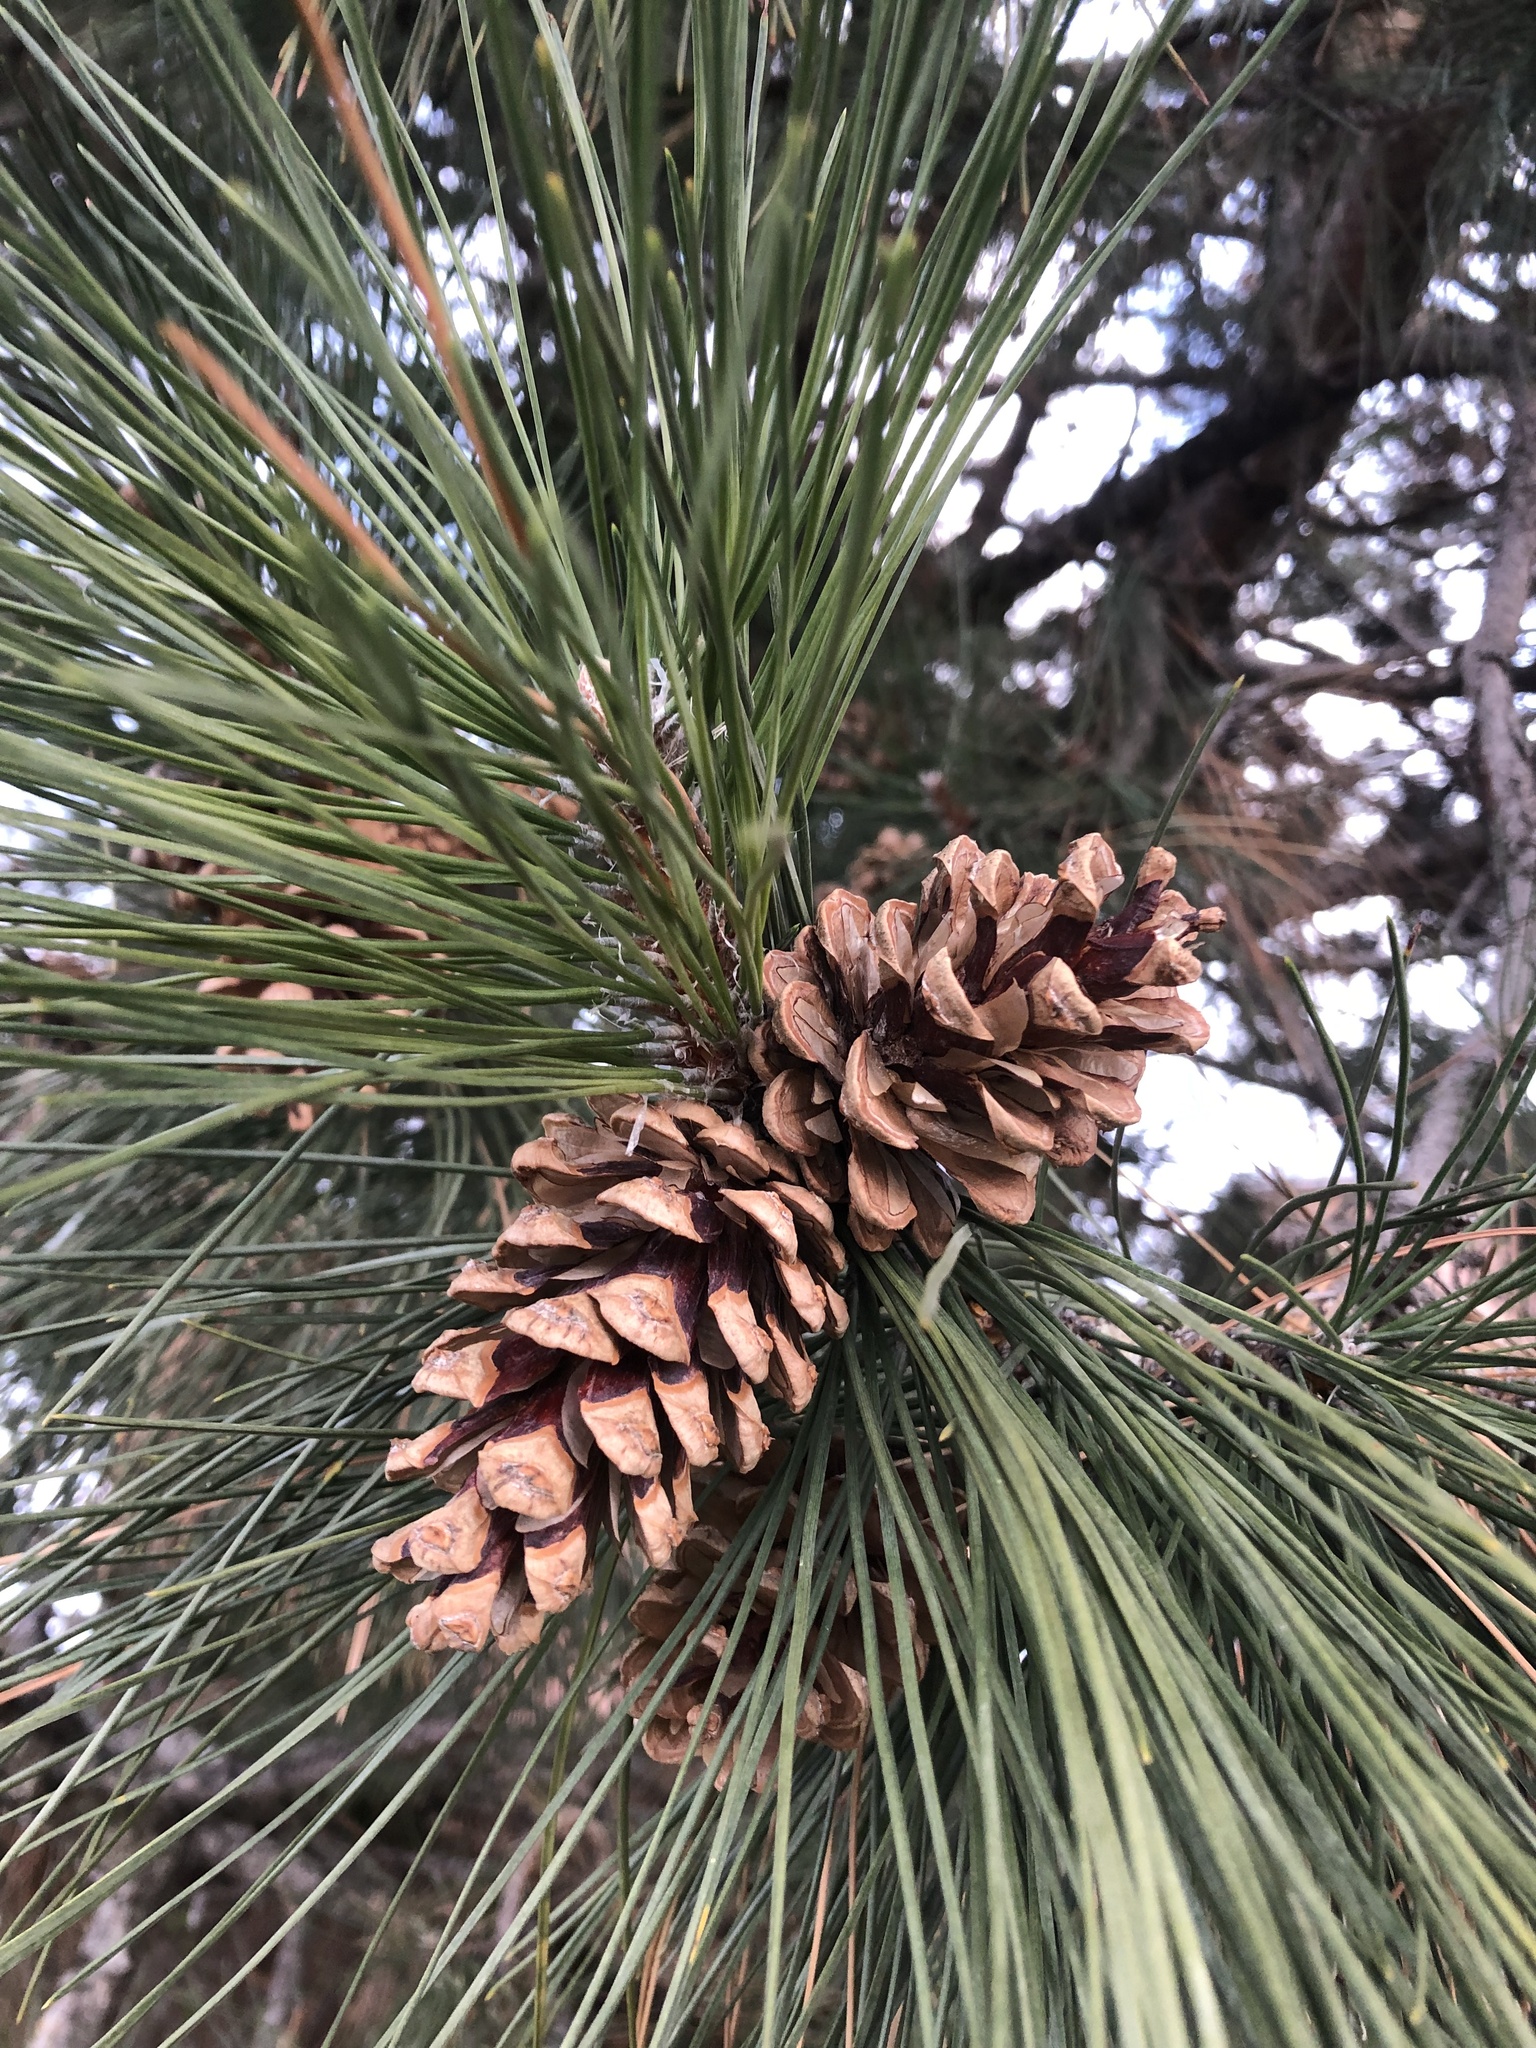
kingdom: Plantae
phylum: Tracheophyta
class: Pinopsida
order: Pinales
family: Pinaceae
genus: Pinus
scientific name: Pinus nigra
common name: Austrian pine
